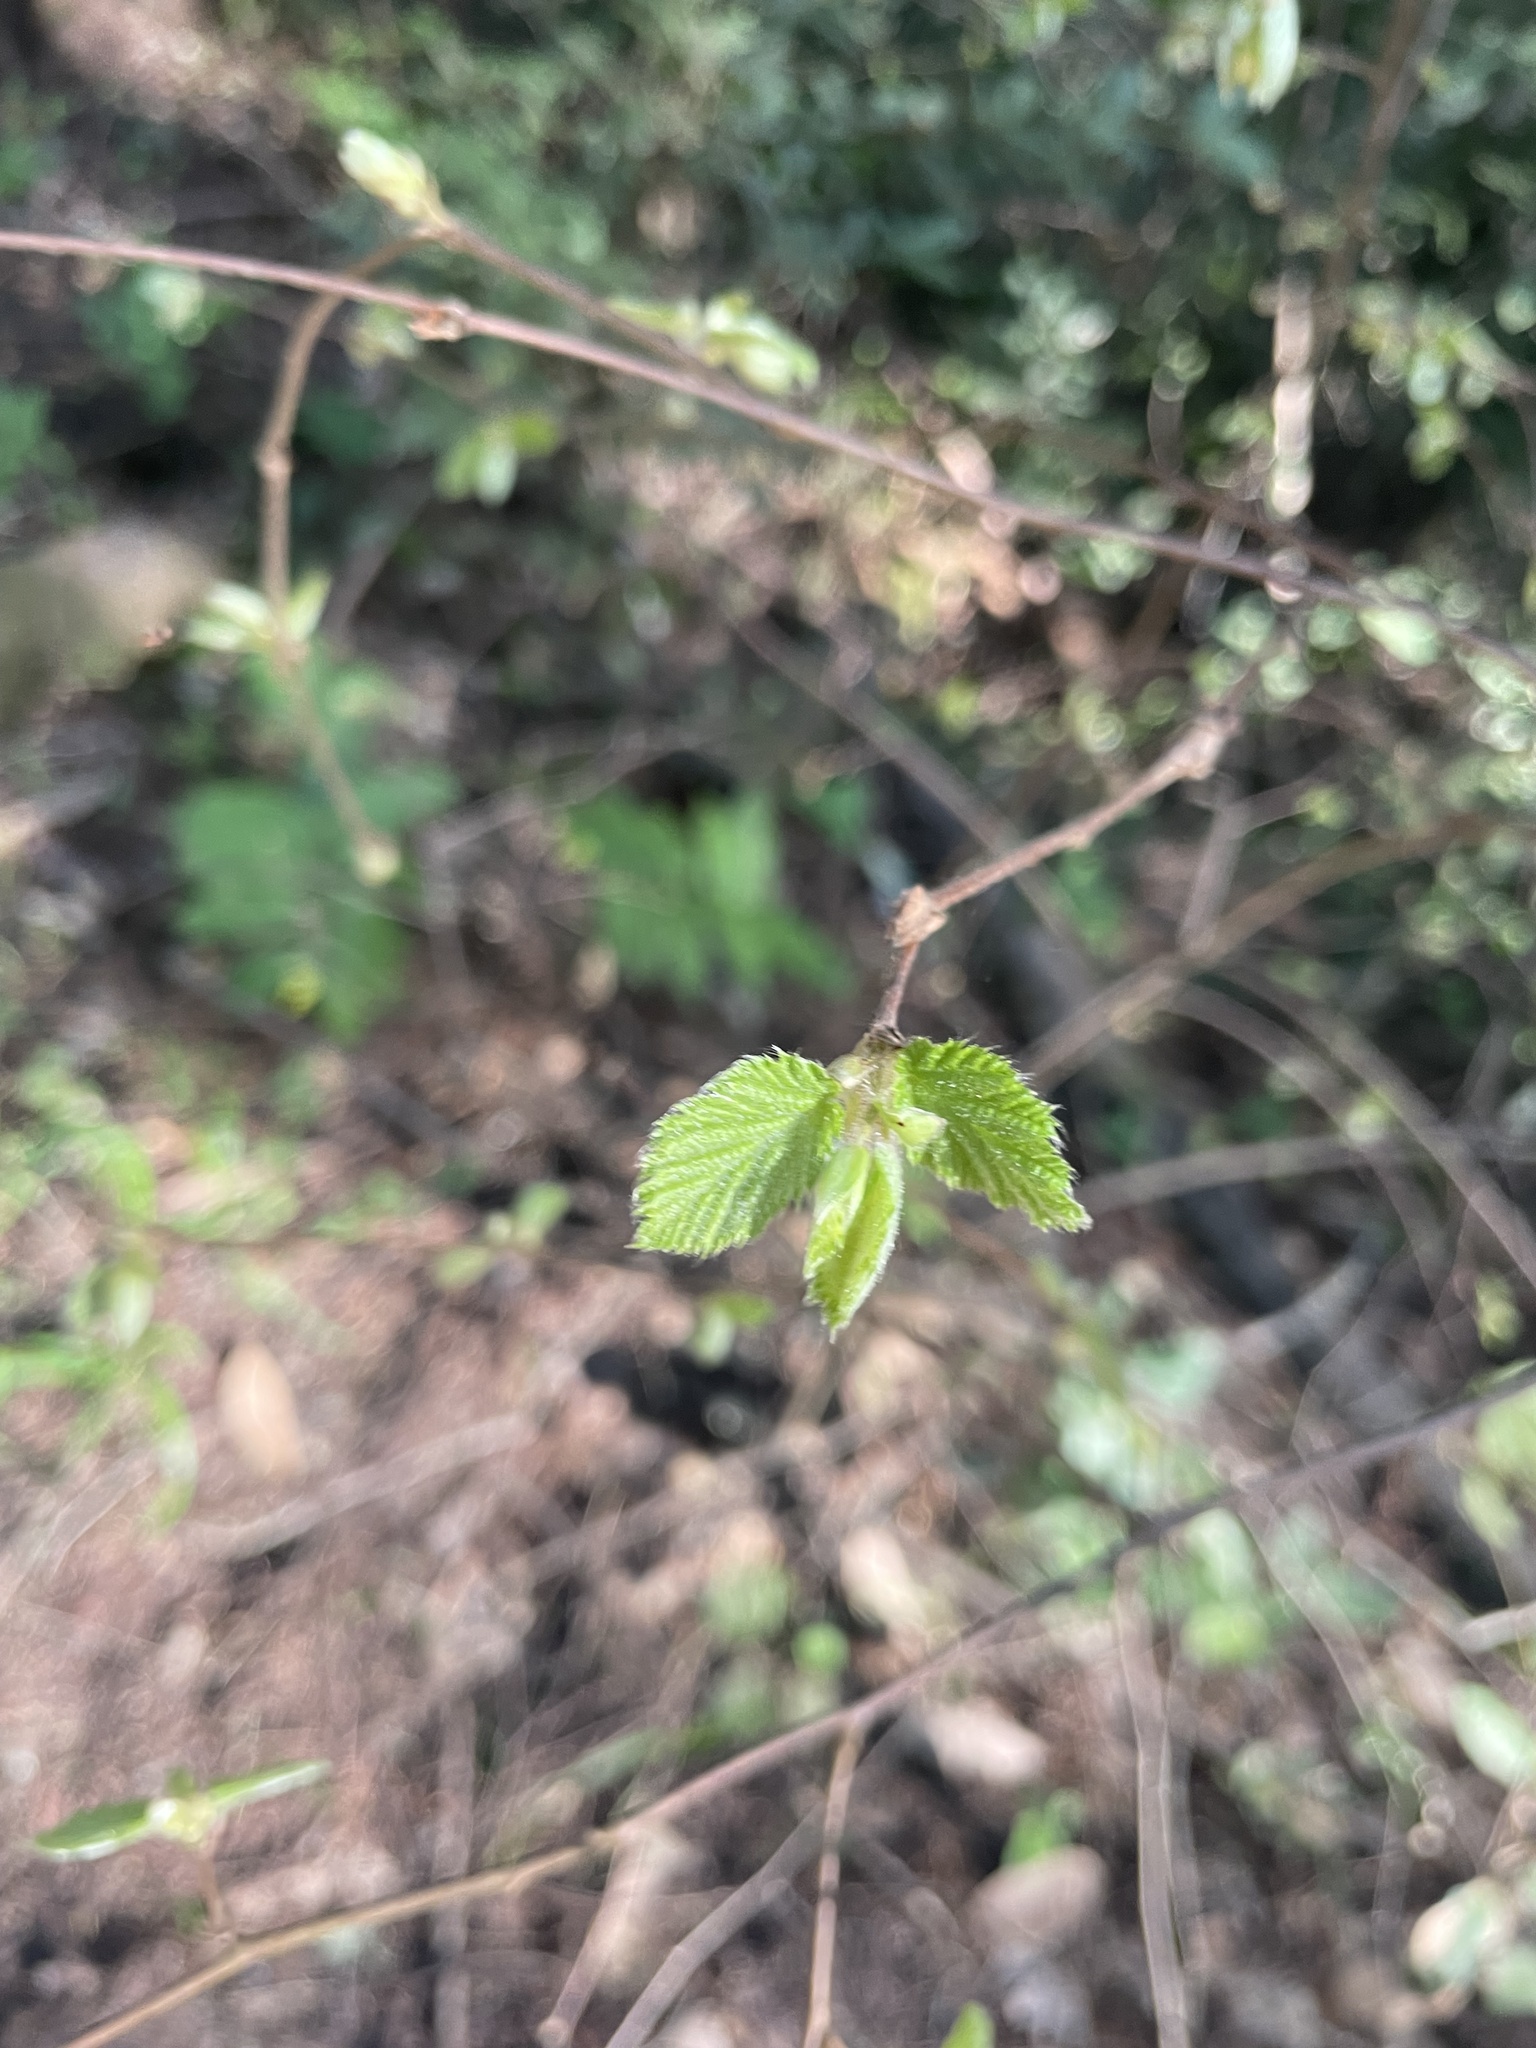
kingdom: Plantae
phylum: Tracheophyta
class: Magnoliopsida
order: Fagales
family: Betulaceae
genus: Corylus
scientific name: Corylus cornuta
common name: Beaked hazel
